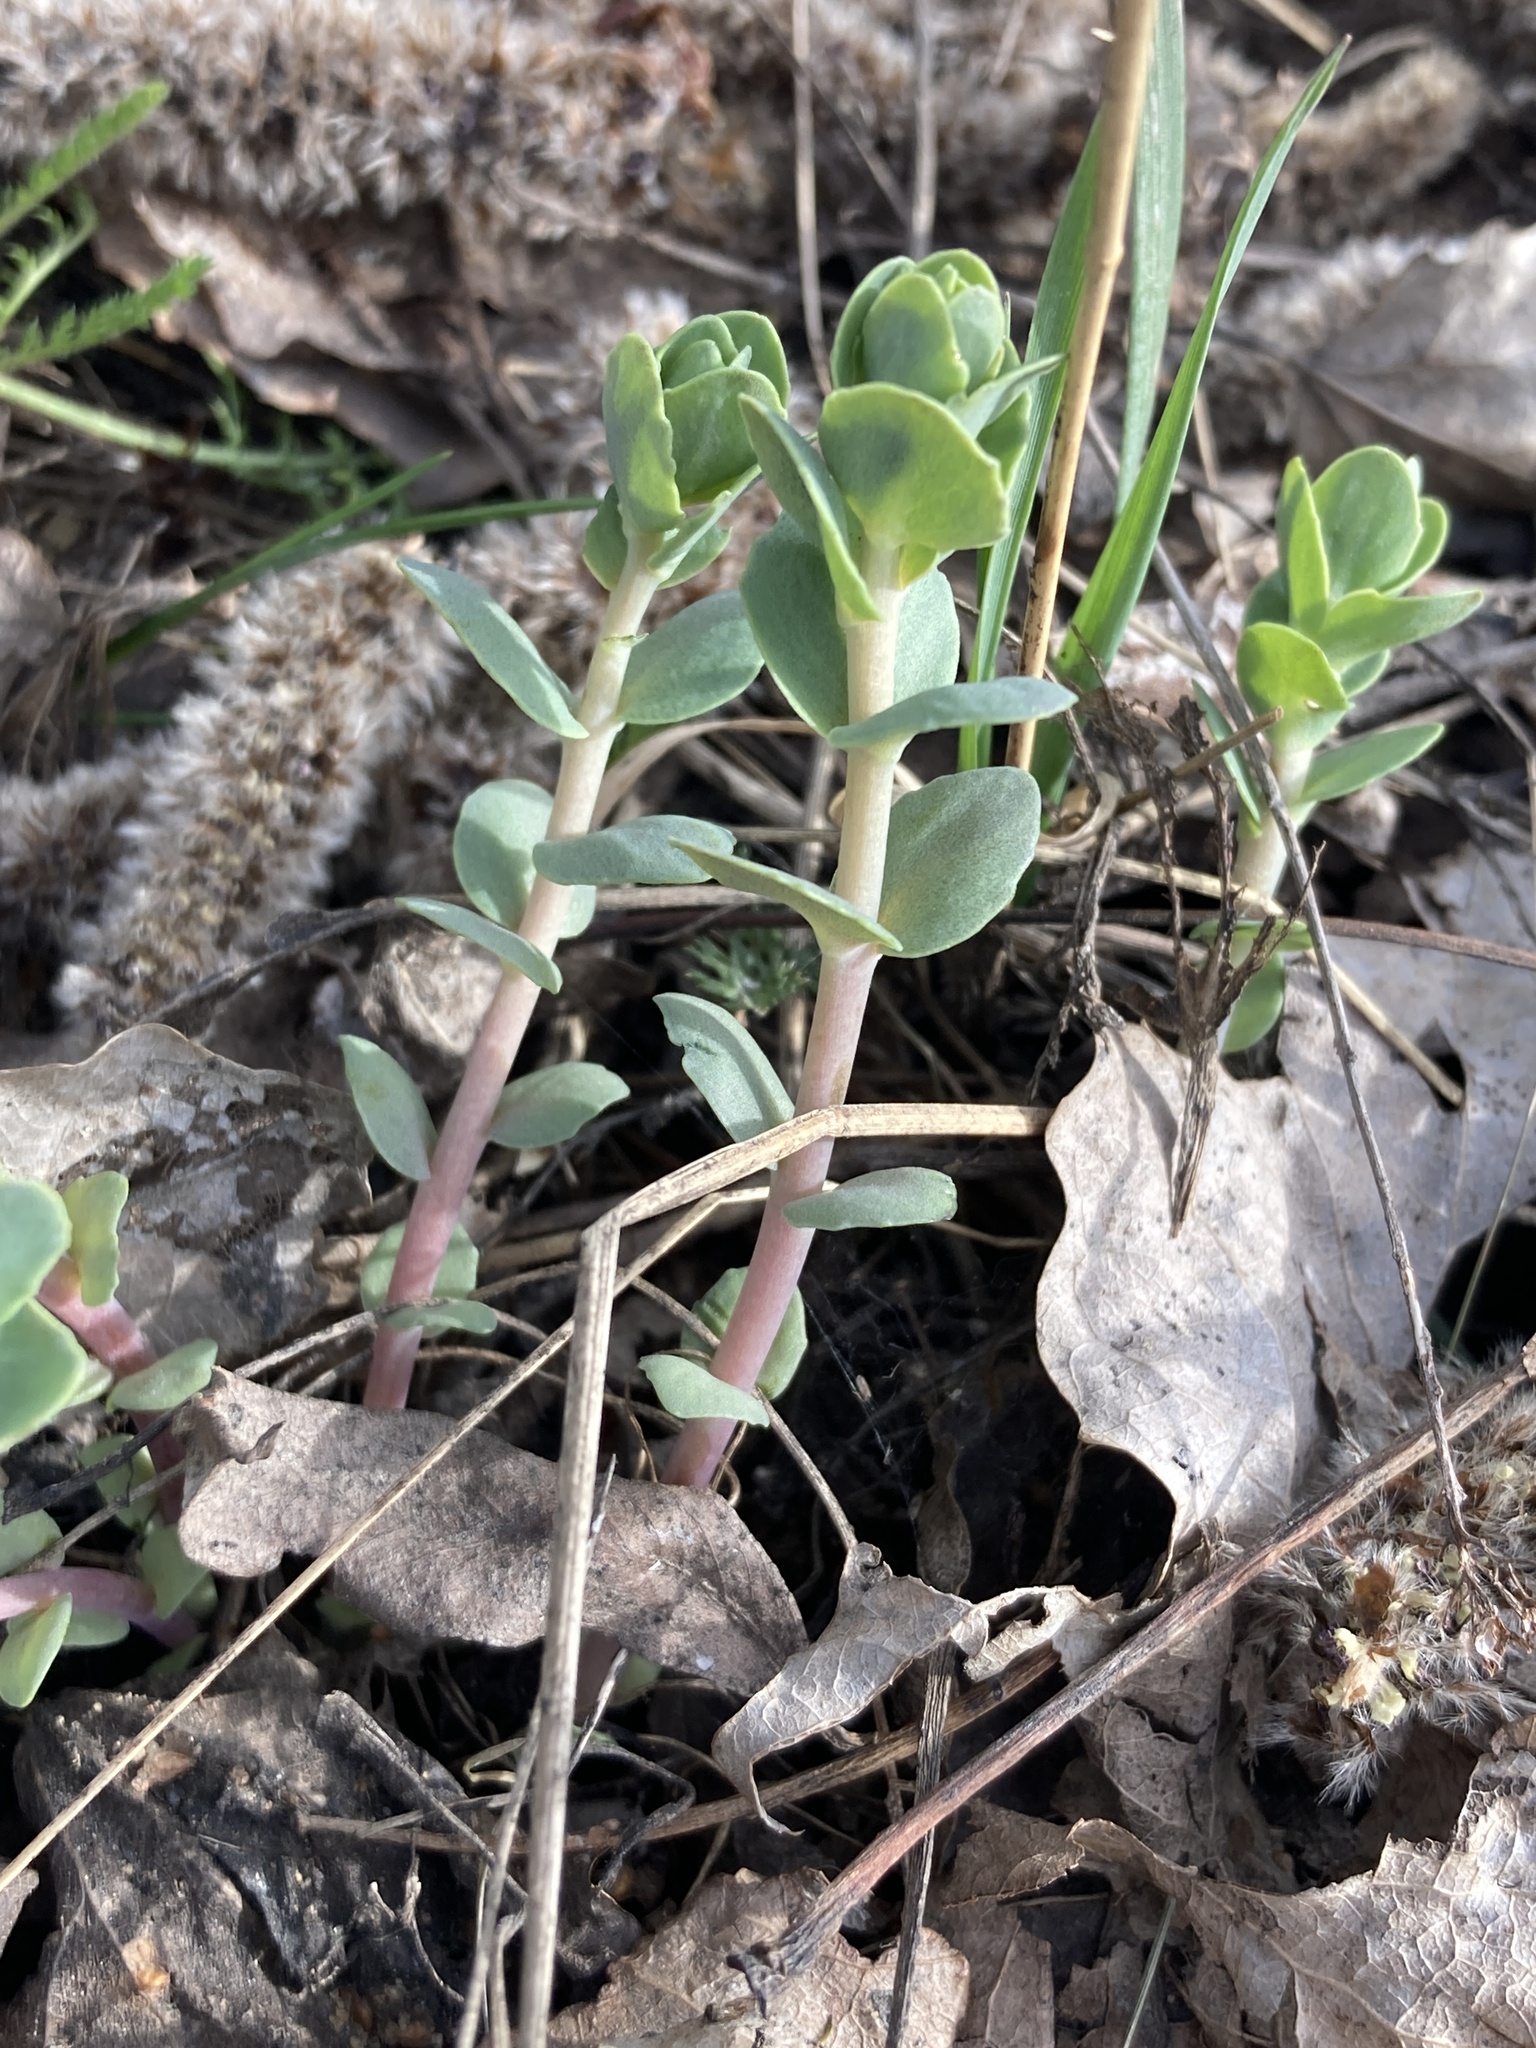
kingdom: Plantae
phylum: Tracheophyta
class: Magnoliopsida
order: Saxifragales
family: Crassulaceae
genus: Hylotelephium
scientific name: Hylotelephium maximum
